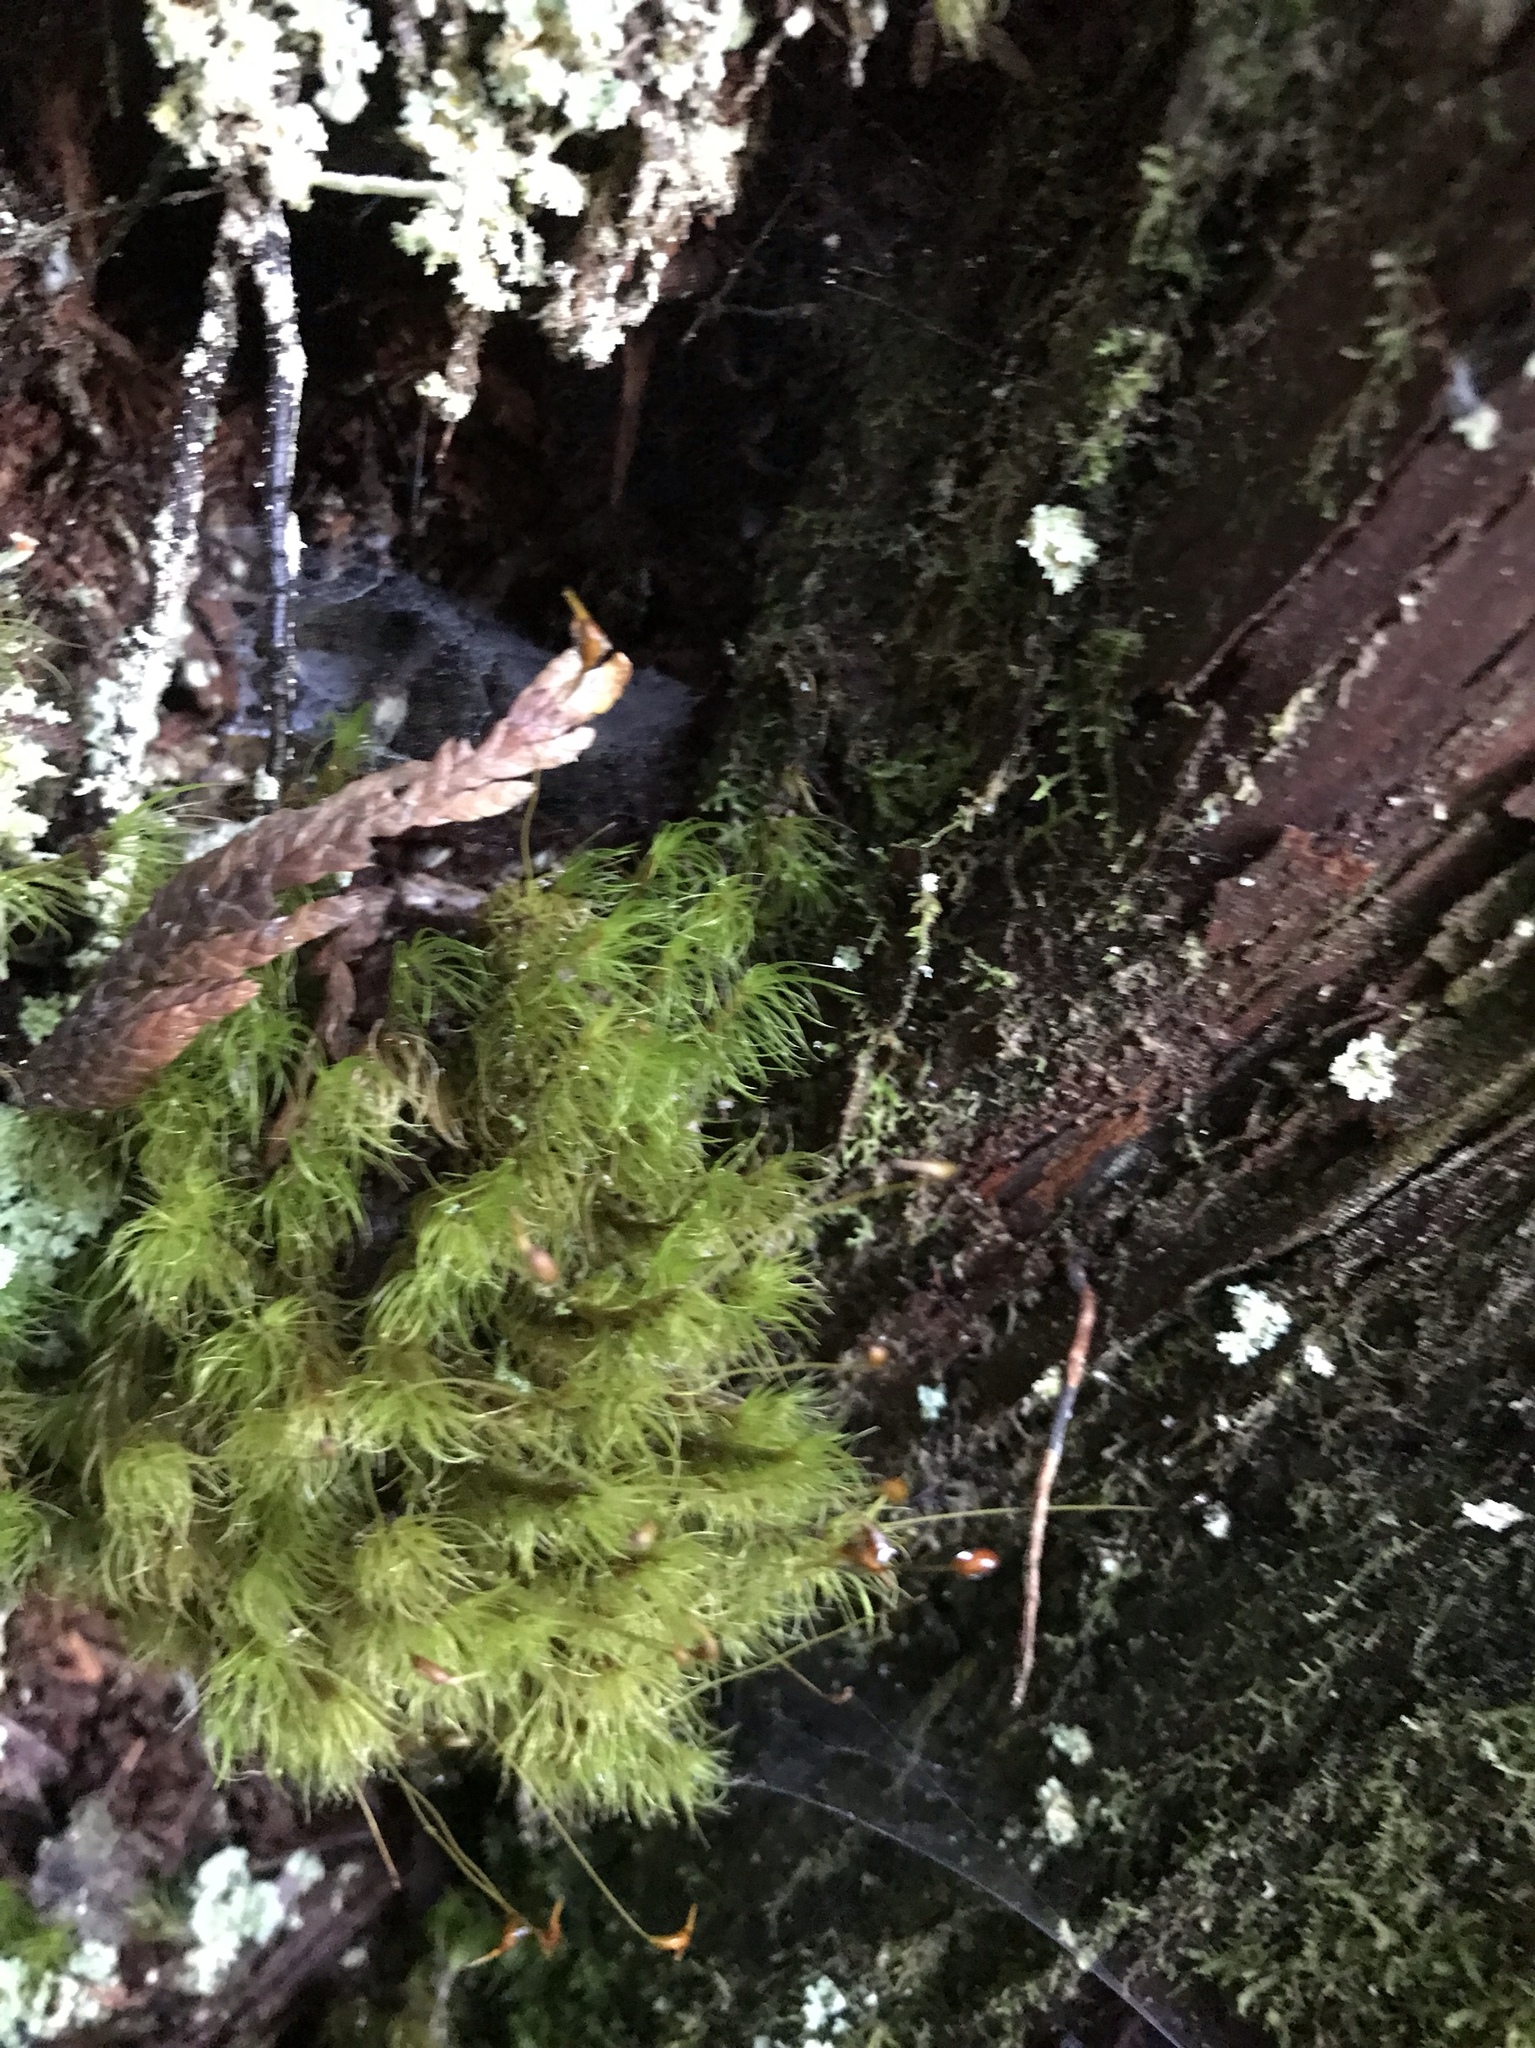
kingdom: Plantae
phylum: Bryophyta
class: Bryopsida
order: Dicranales
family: Dicranaceae
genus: Dicranum
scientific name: Dicranum fuscescens
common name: Curly heron's-bill moss
